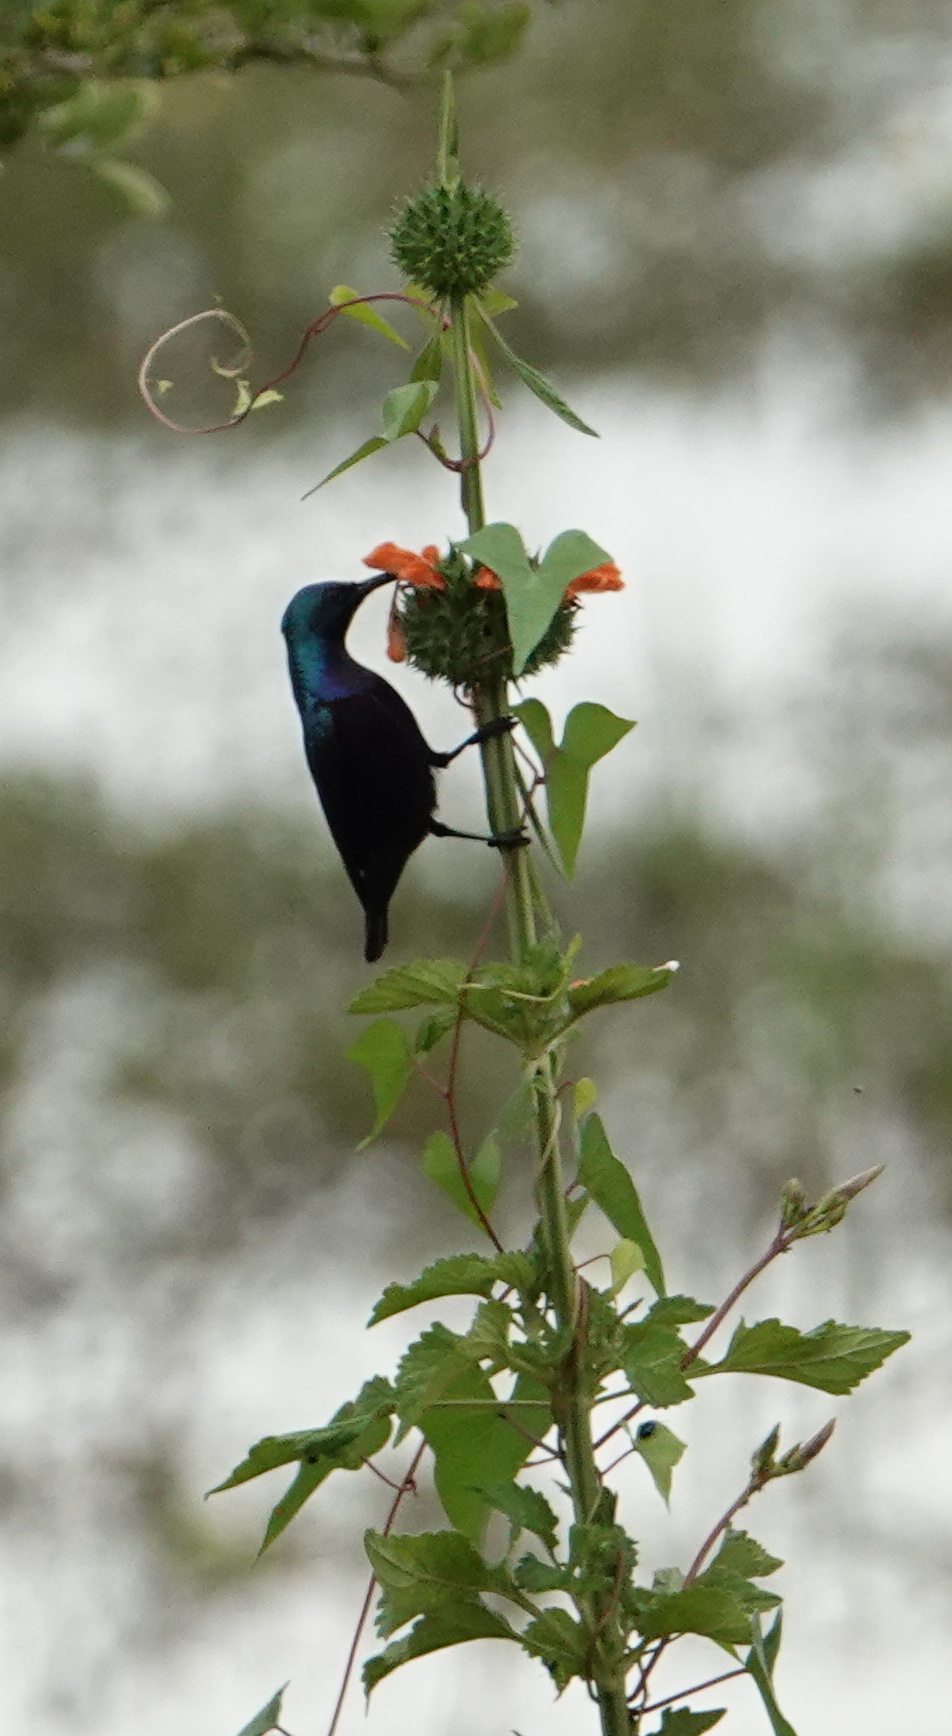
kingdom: Animalia
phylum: Chordata
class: Aves
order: Passeriformes
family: Nectariniidae
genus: Cinnyris
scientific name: Cinnyris asiaticus
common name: Purple sunbird
